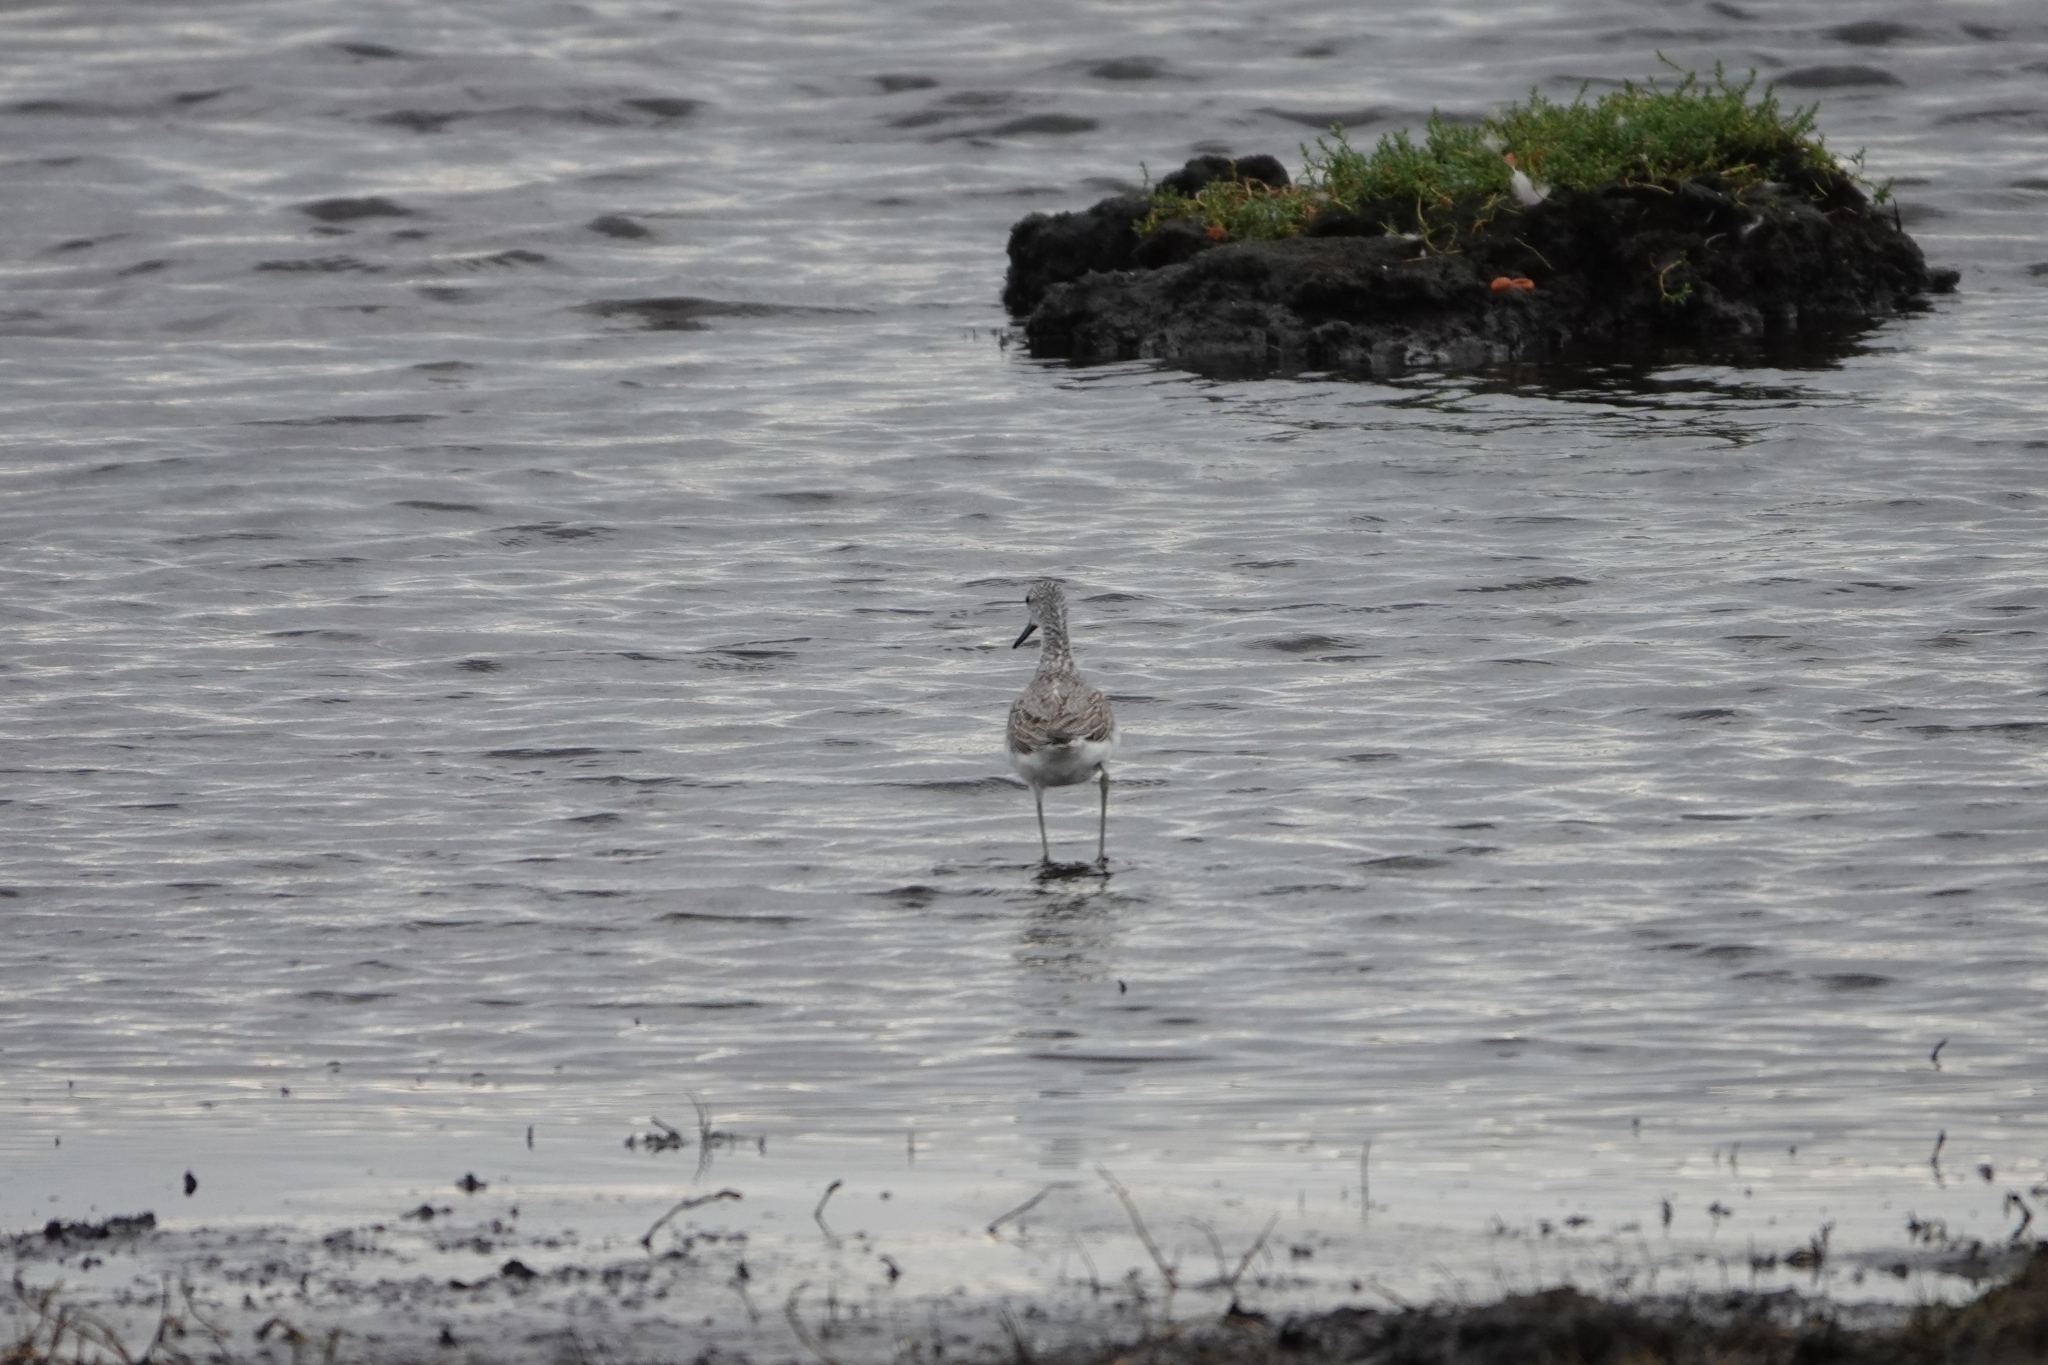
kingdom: Animalia
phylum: Chordata
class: Aves
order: Charadriiformes
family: Scolopacidae
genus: Tringa
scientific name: Tringa nebularia
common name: Common greenshank
